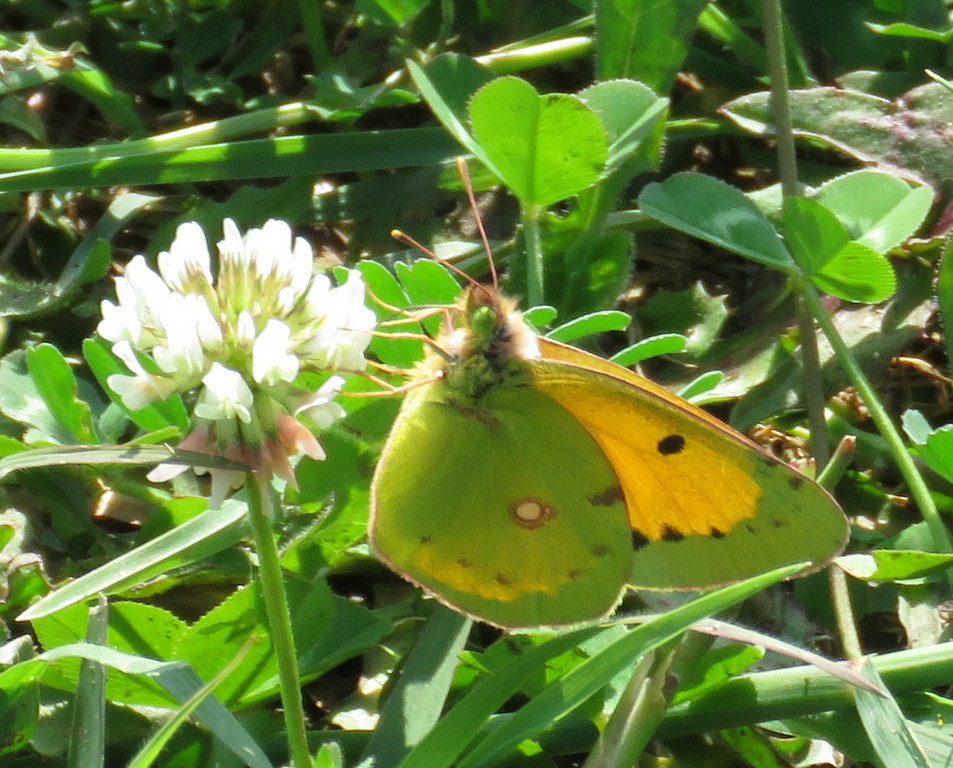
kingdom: Animalia
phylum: Arthropoda
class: Insecta
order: Lepidoptera
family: Pieridae
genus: Colias
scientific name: Colias croceus
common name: Clouded yellow
